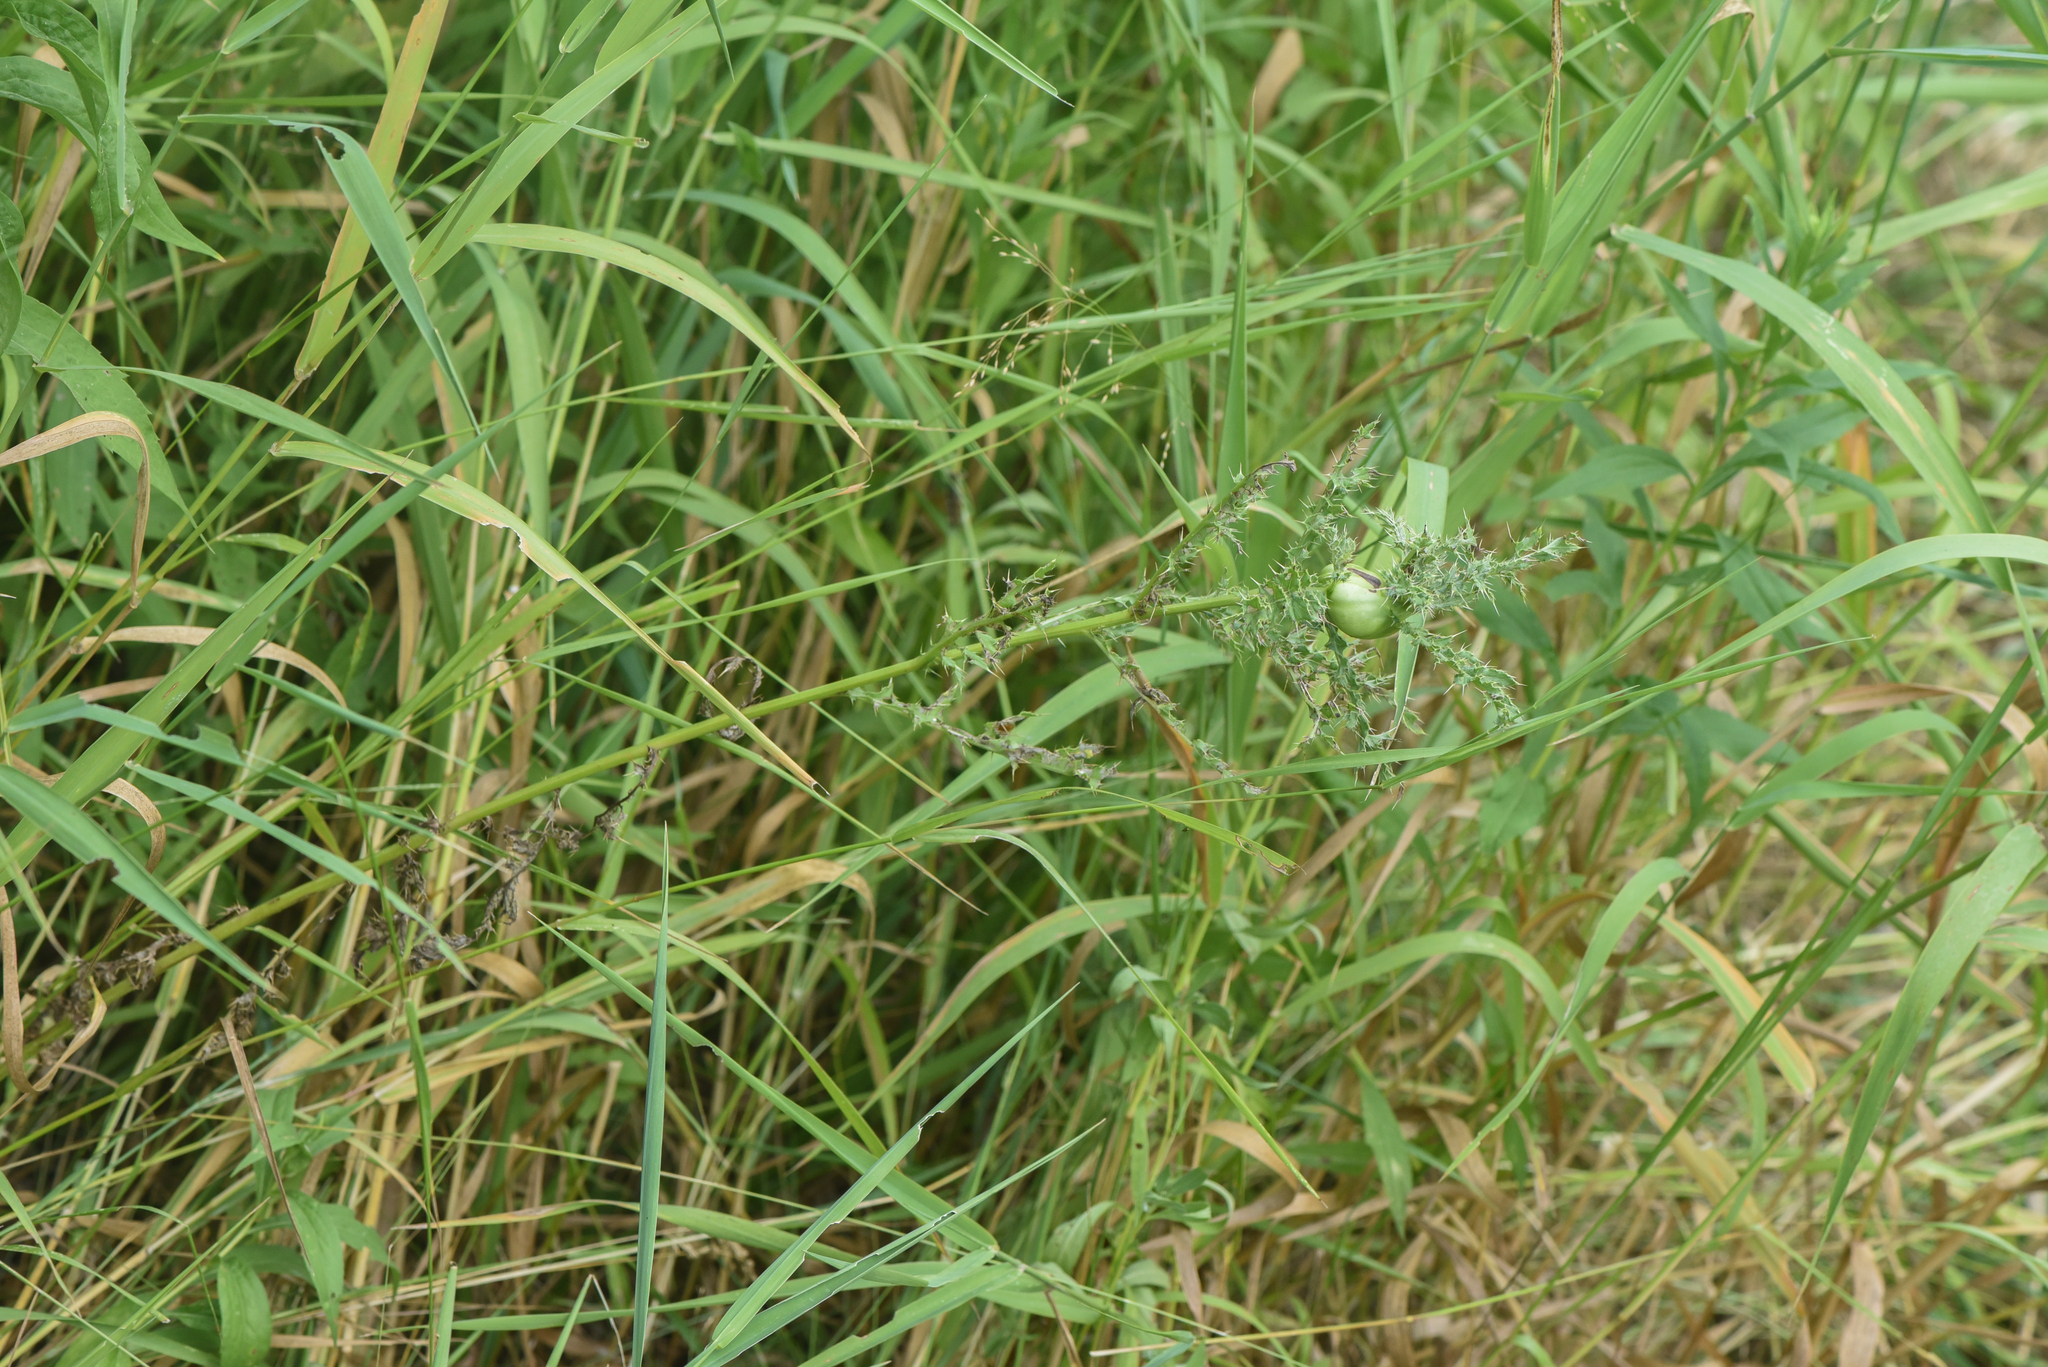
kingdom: Plantae
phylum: Tracheophyta
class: Magnoliopsida
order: Asterales
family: Asteraceae
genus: Cirsium
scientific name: Cirsium arvense
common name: Creeping thistle
